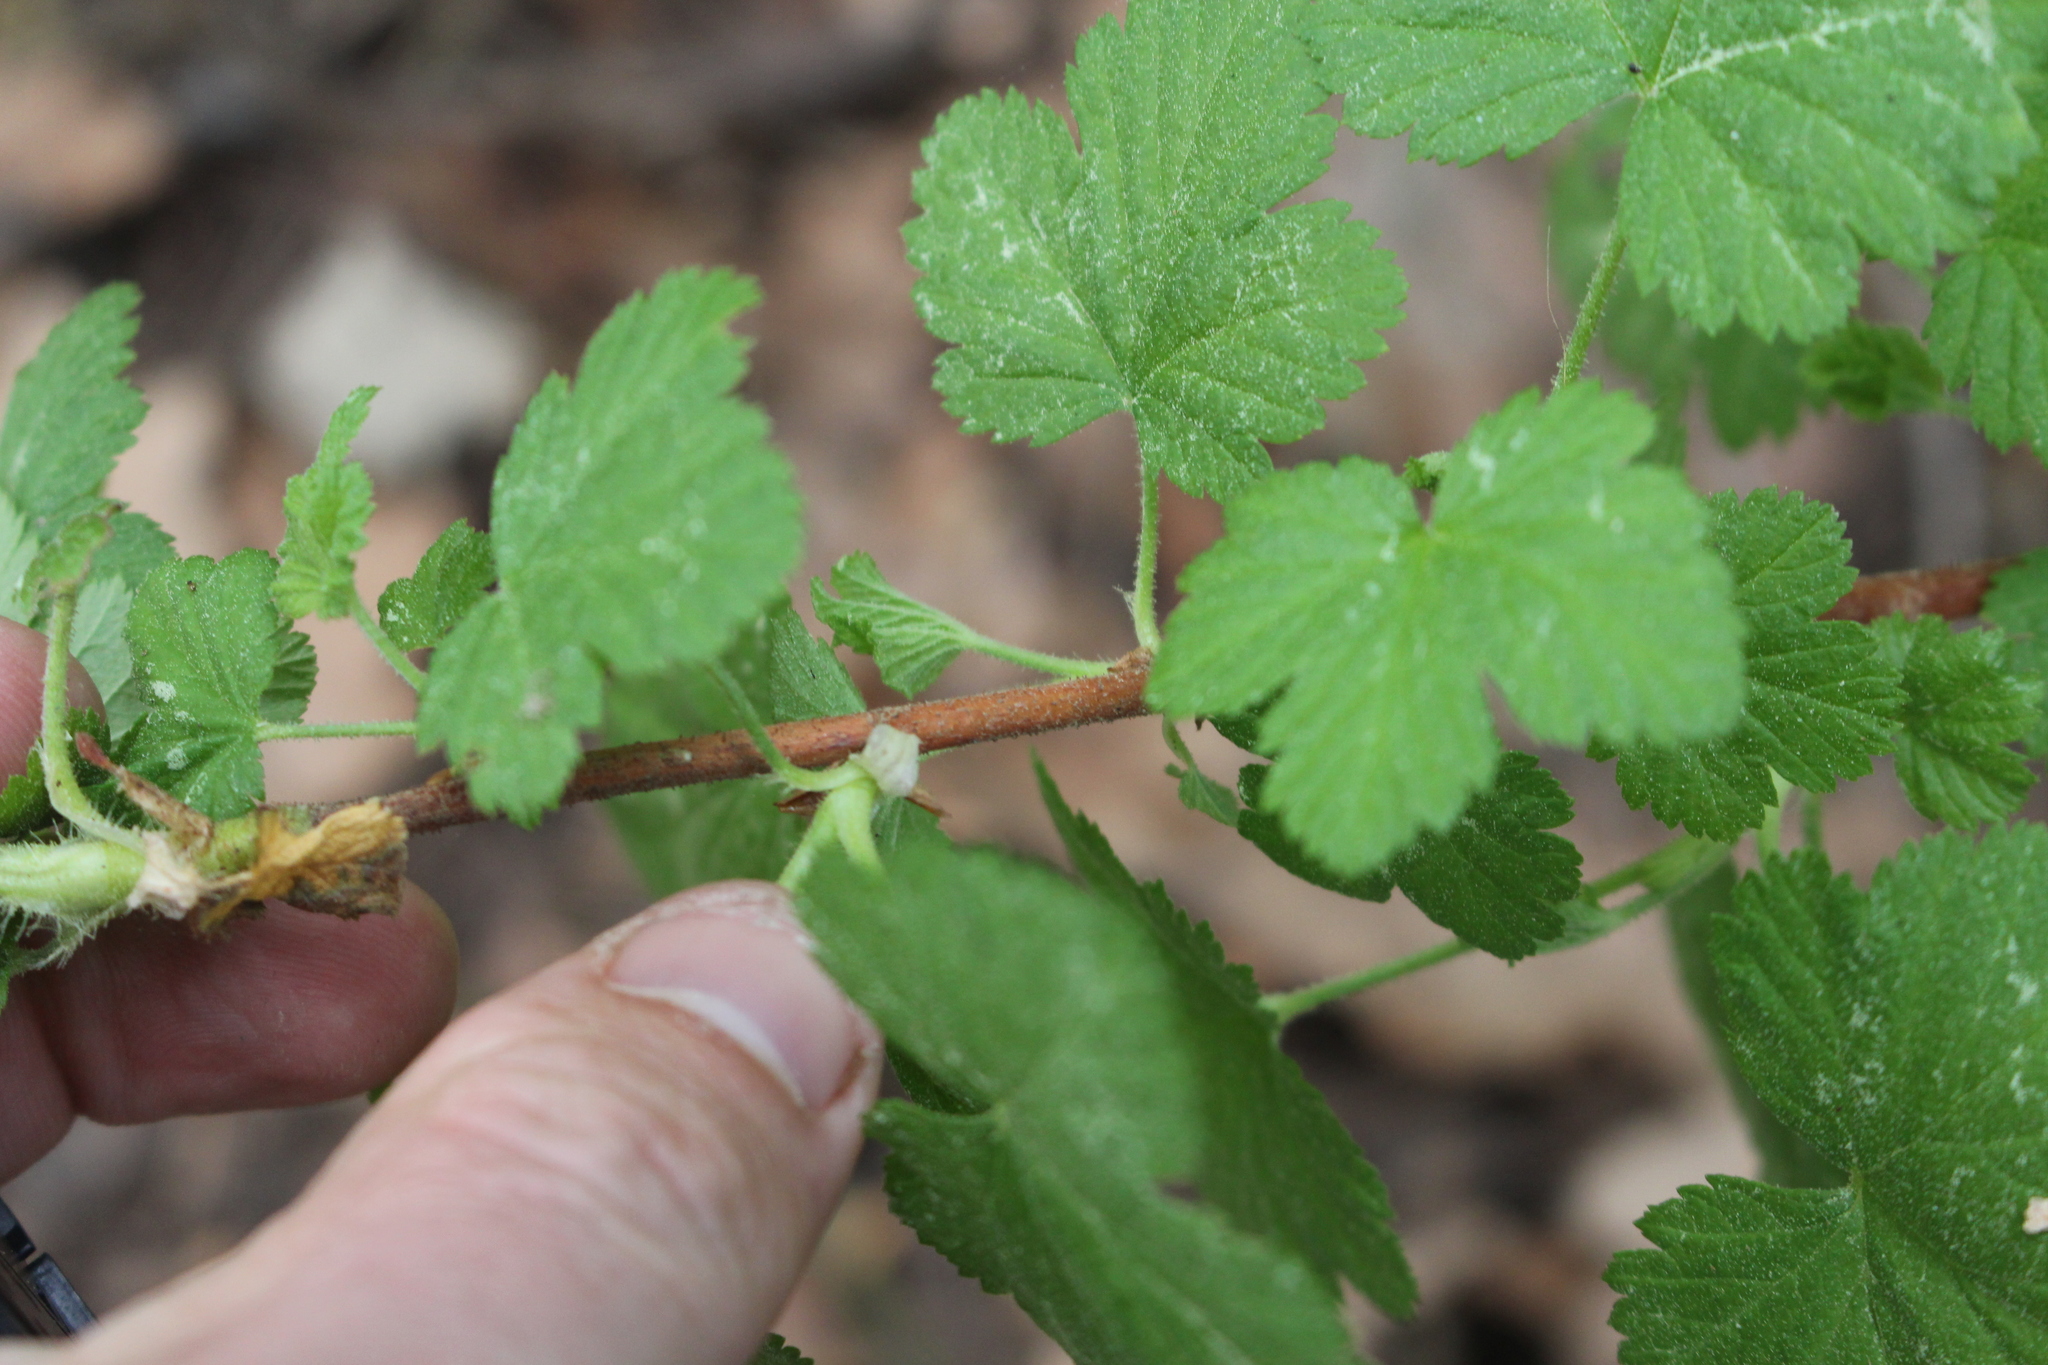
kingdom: Plantae
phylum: Tracheophyta
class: Magnoliopsida
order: Saxifragales
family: Grossulariaceae
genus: Ribes
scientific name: Ribes sanguineum
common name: Flowering currant
